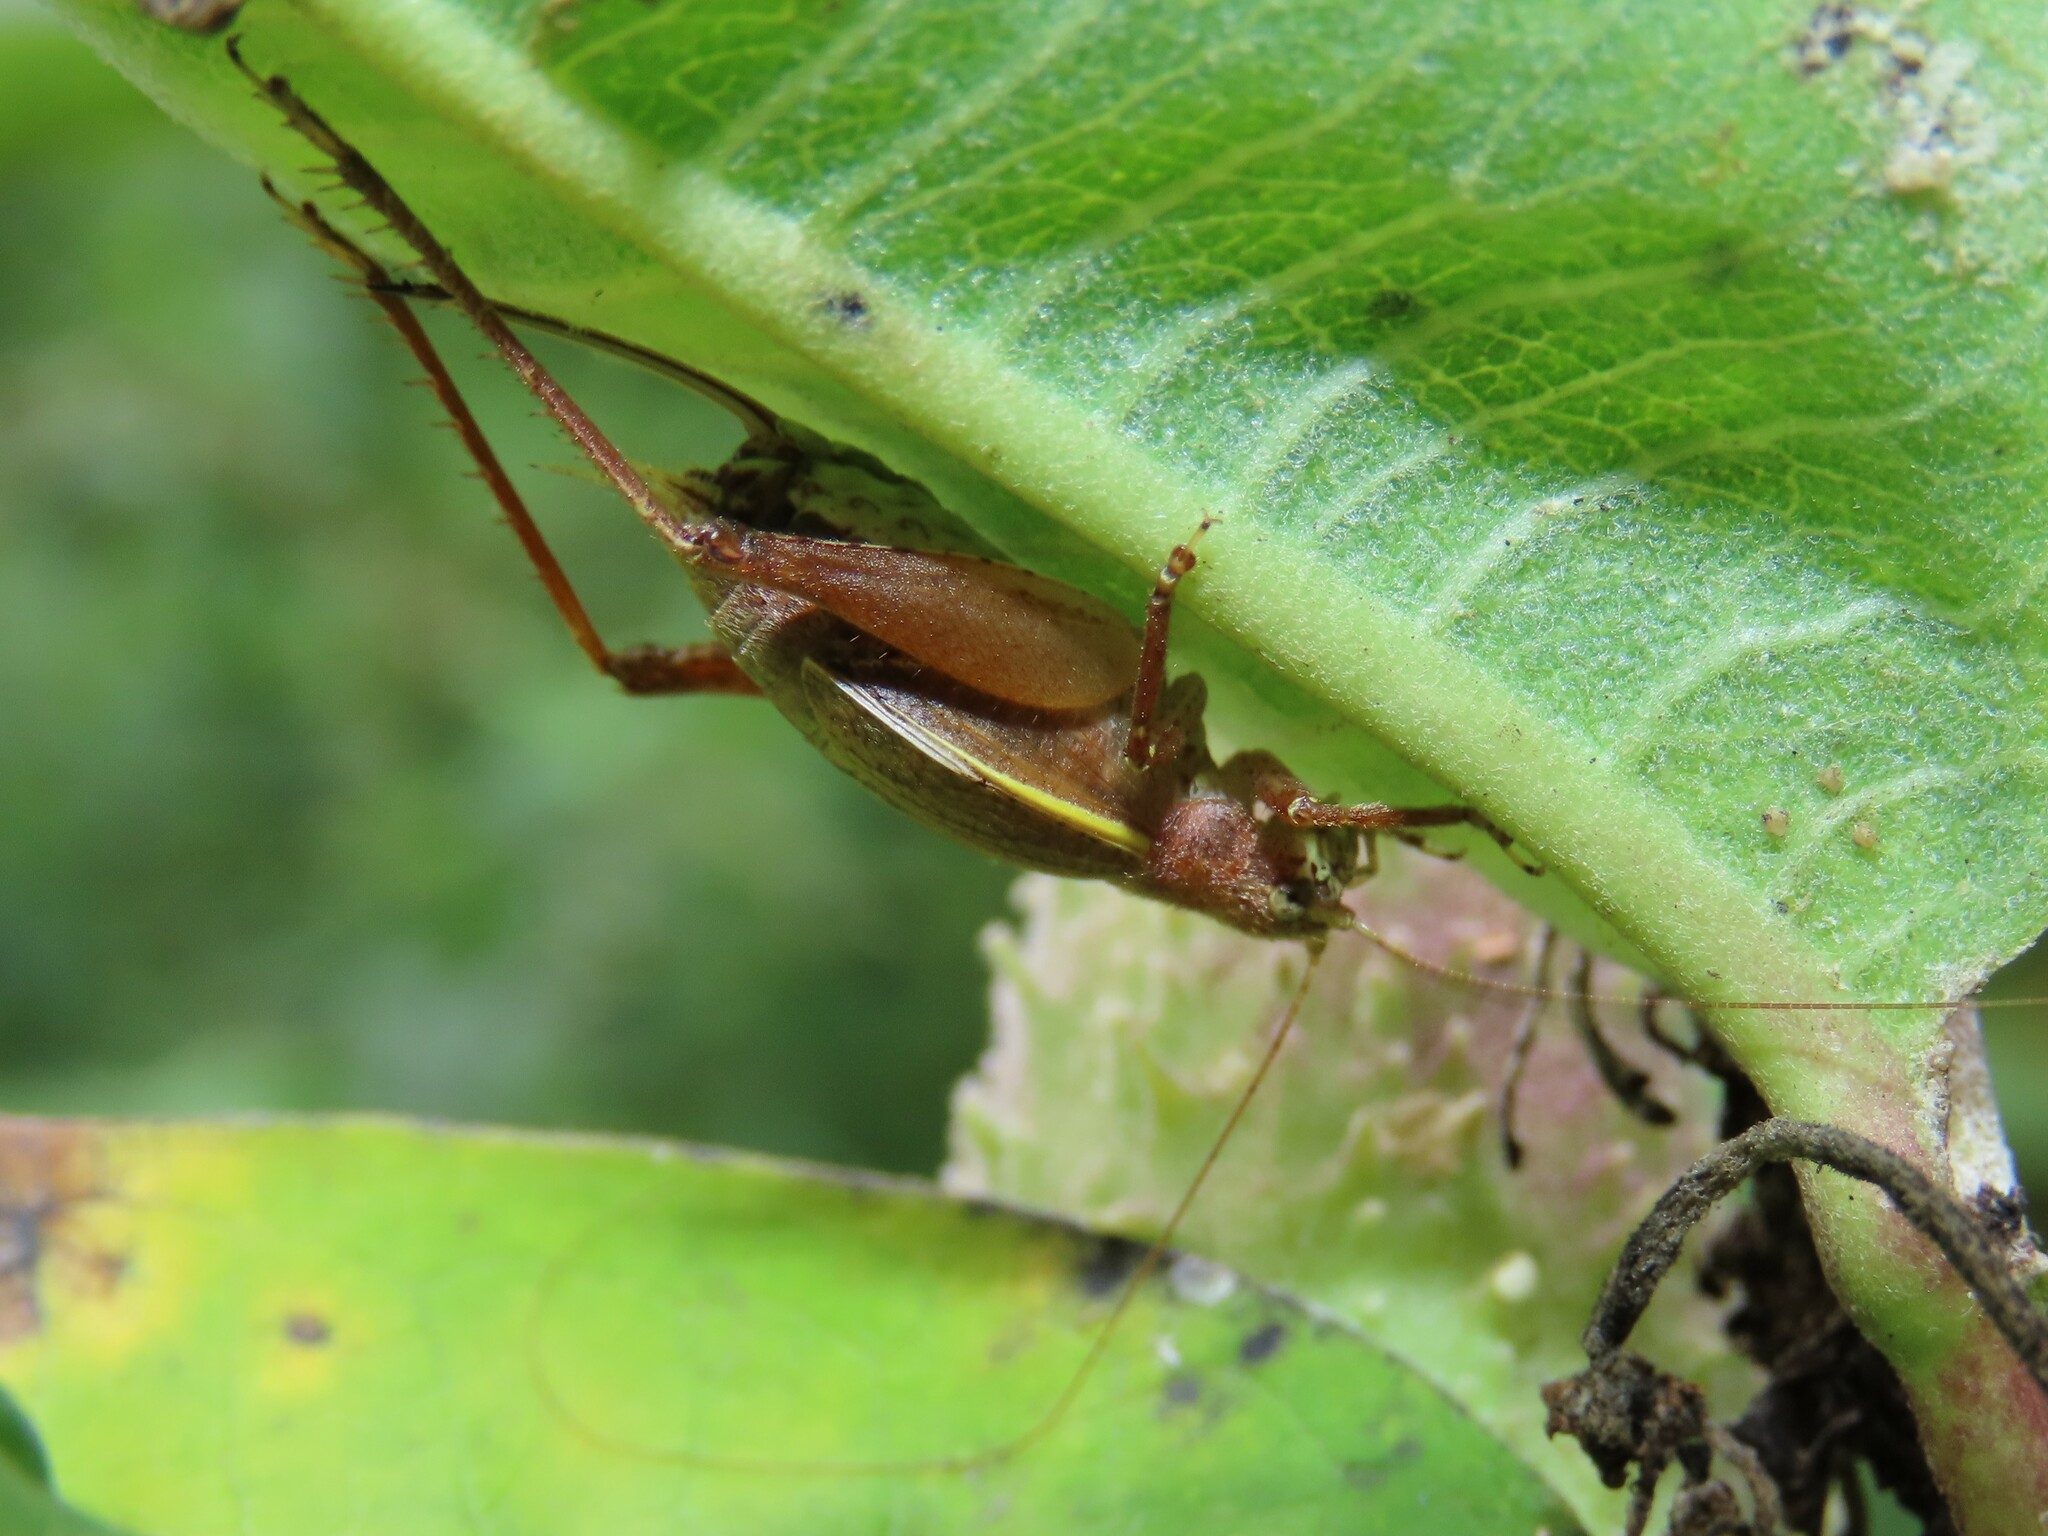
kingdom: Animalia
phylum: Arthropoda
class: Insecta
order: Orthoptera
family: Gryllidae
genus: Hapithus
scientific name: Hapithus agitator
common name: Restless bush cricket
